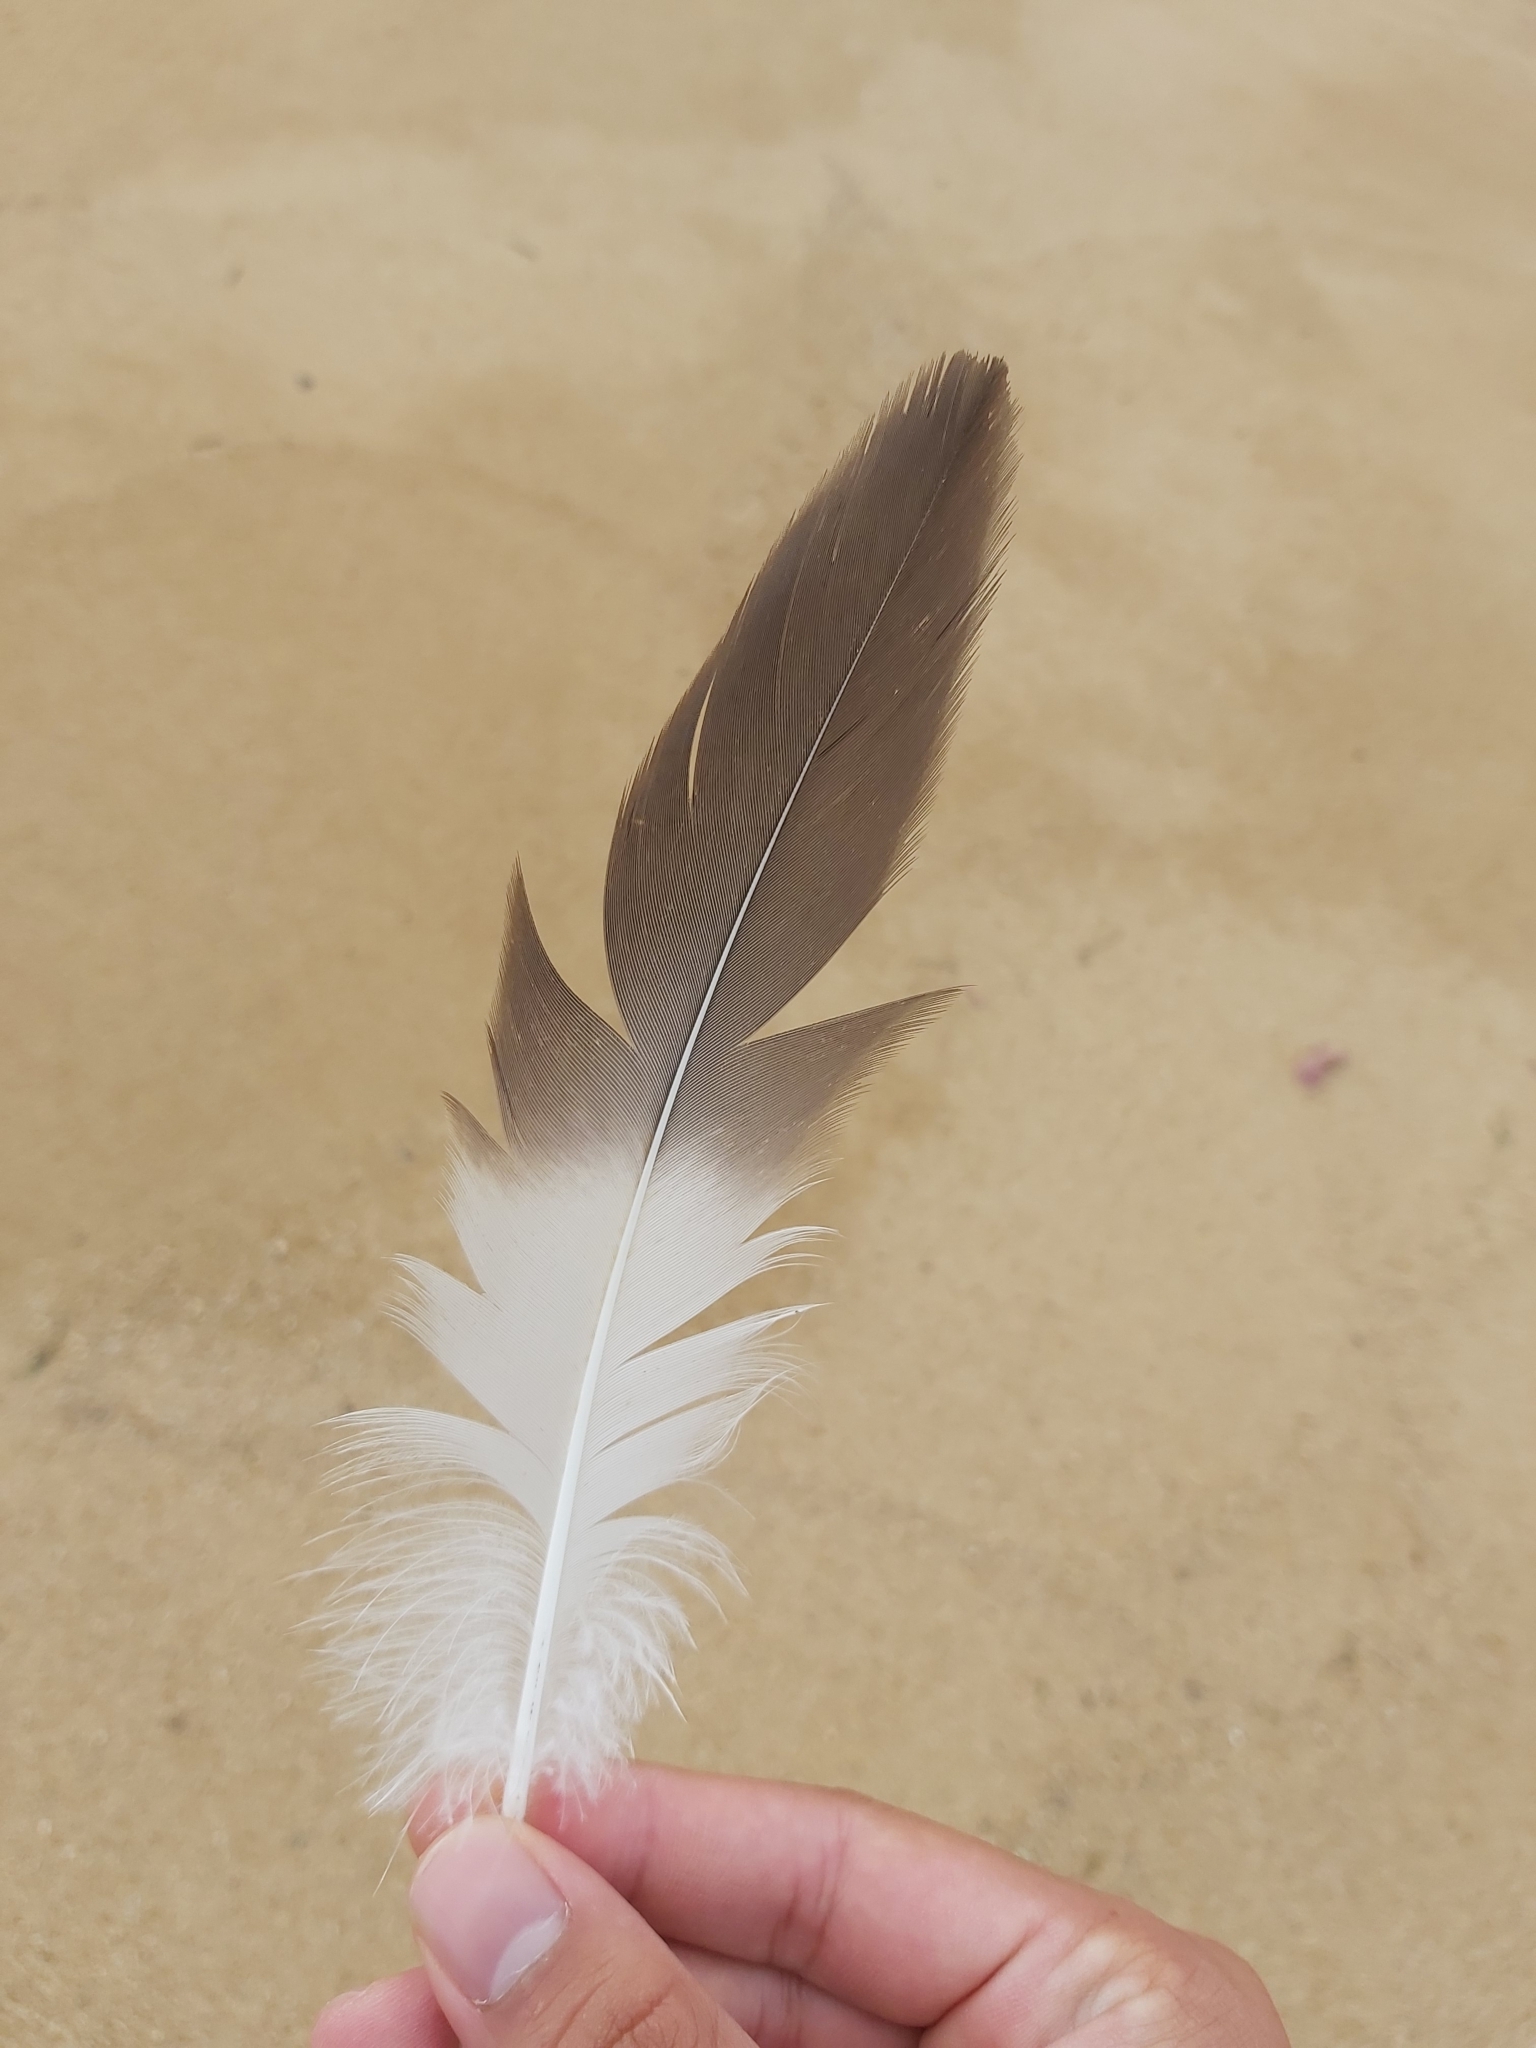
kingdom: Animalia
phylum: Chordata
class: Aves
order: Pelecaniformes
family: Pelecanidae
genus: Pelecanus
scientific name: Pelecanus conspicillatus
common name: Australian pelican
